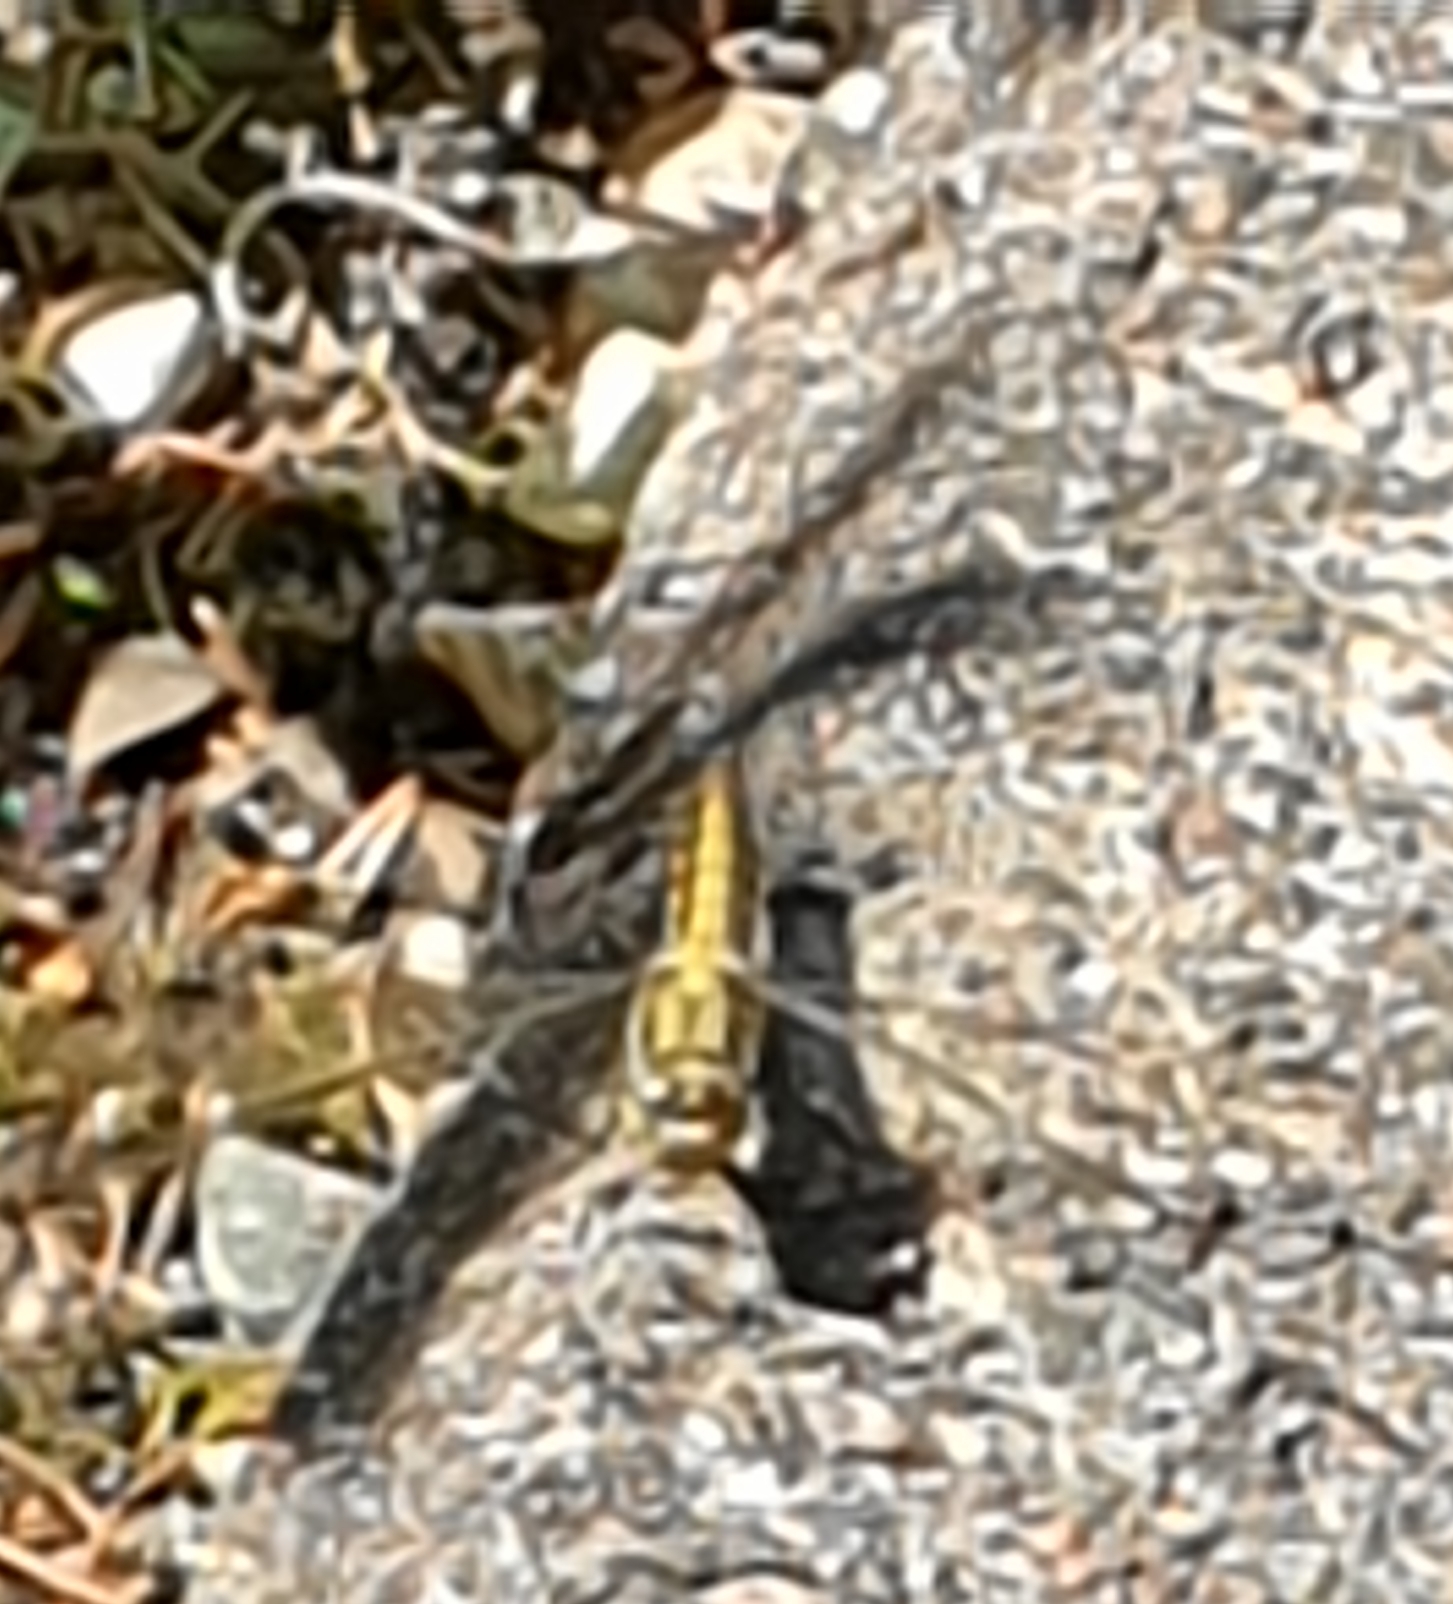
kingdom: Animalia
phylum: Arthropoda
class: Insecta
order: Odonata
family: Libellulidae
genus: Orthetrum
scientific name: Orthetrum cancellatum
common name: Black-tailed skimmer
